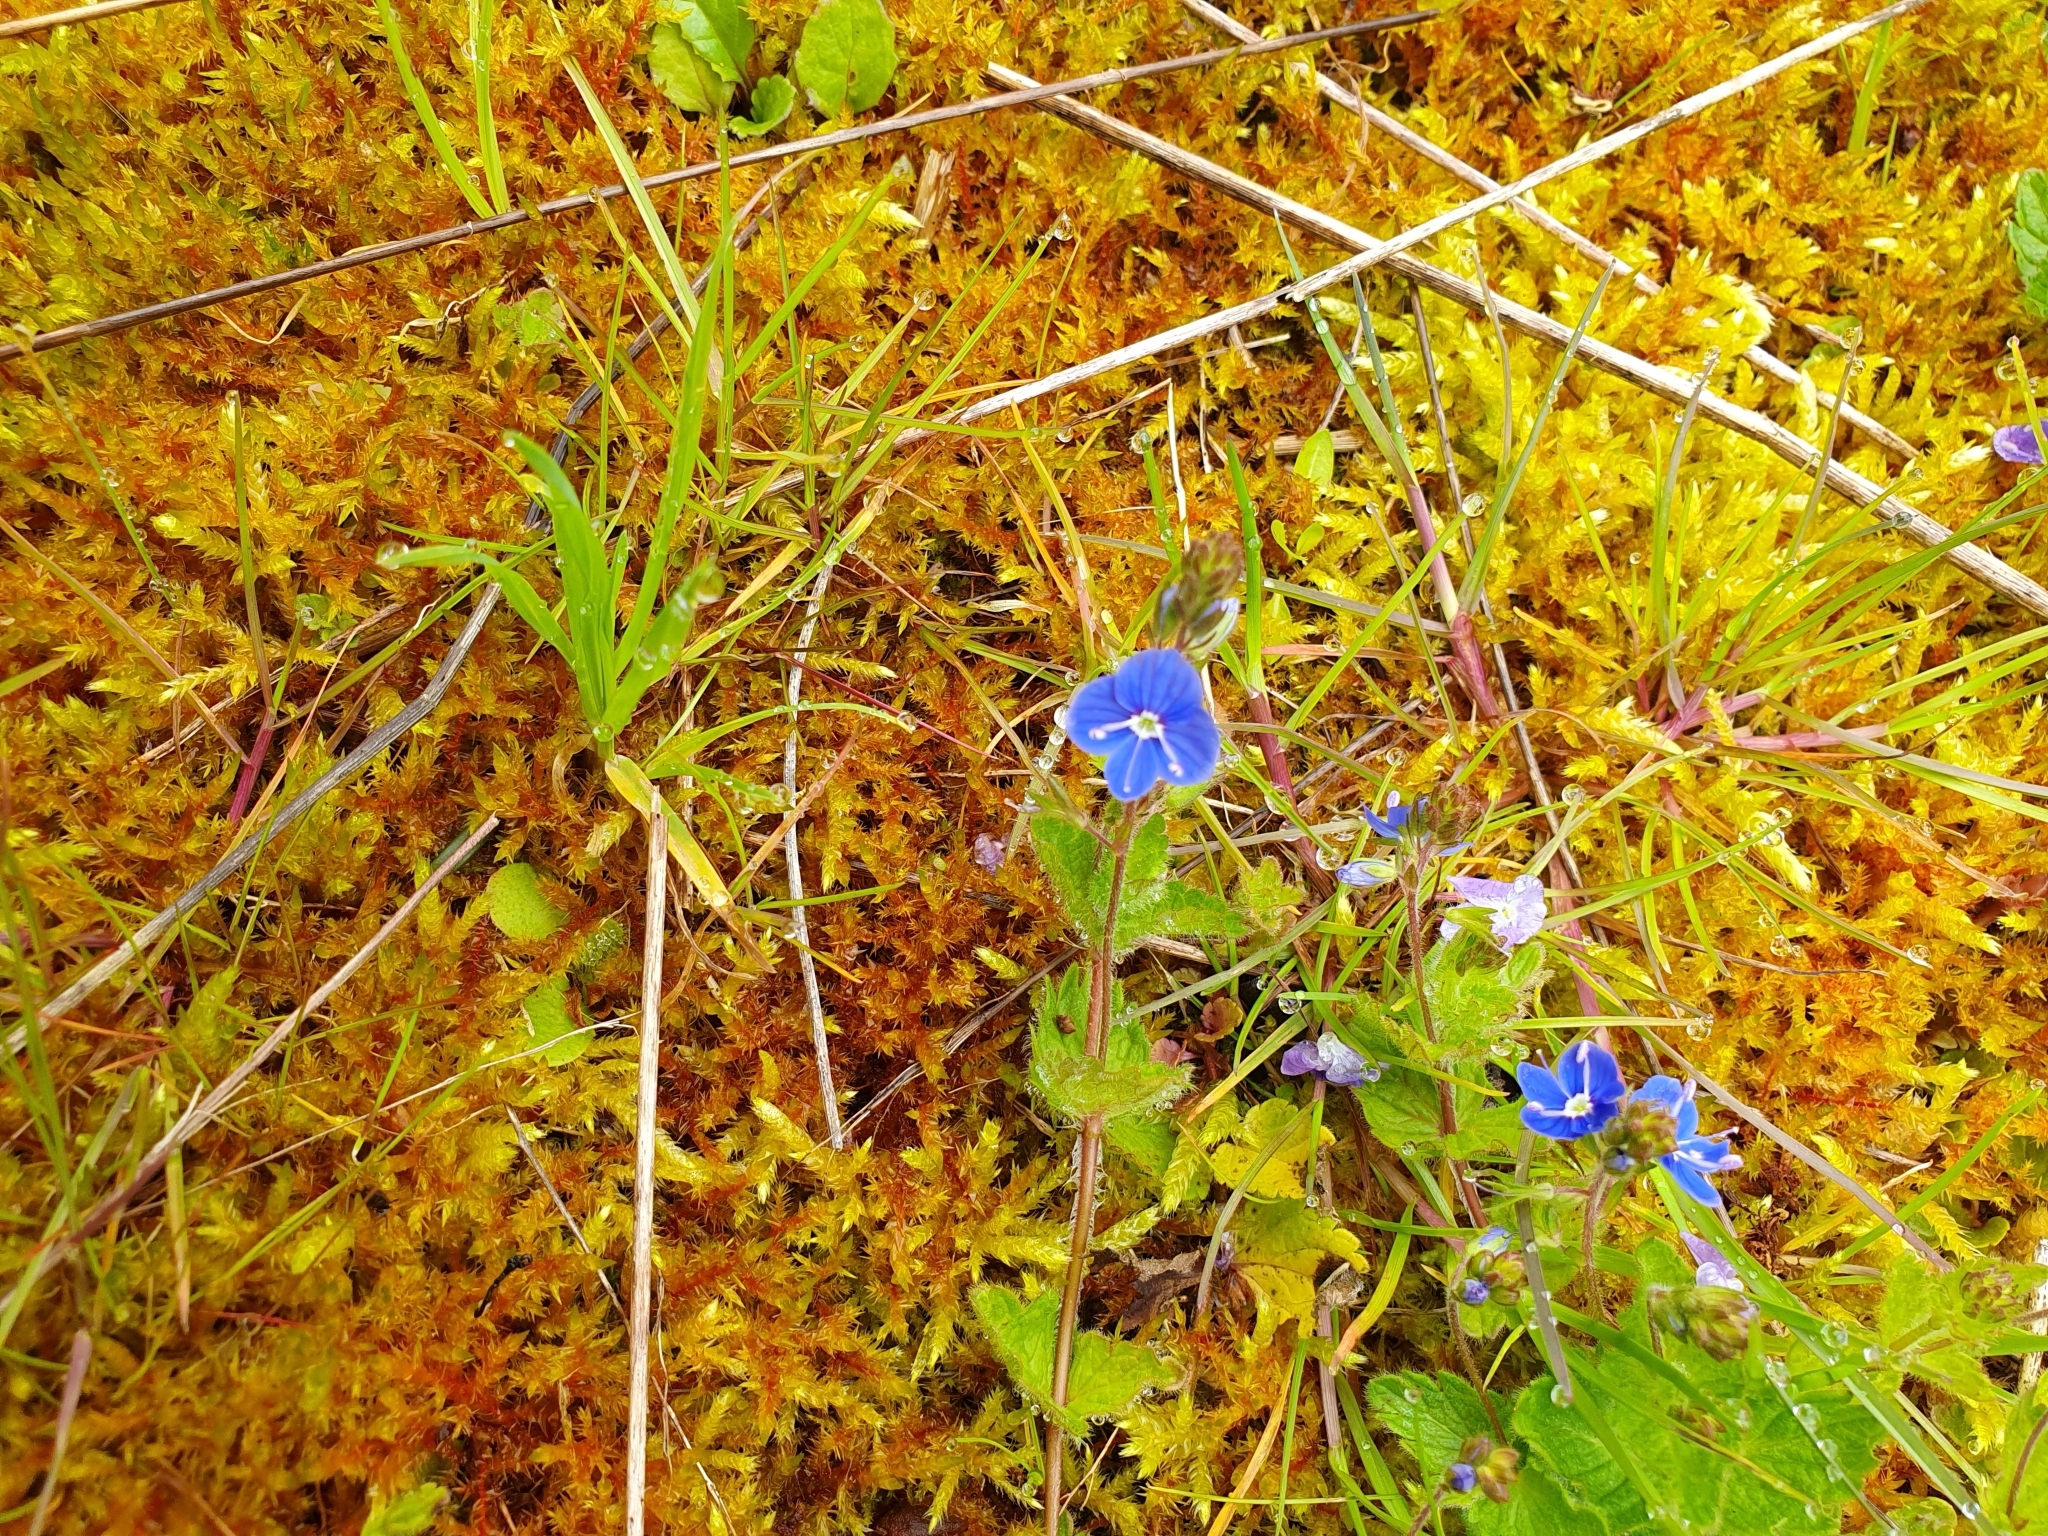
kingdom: Plantae
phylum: Tracheophyta
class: Magnoliopsida
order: Lamiales
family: Plantaginaceae
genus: Veronica
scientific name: Veronica chamaedrys
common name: Germander speedwell
